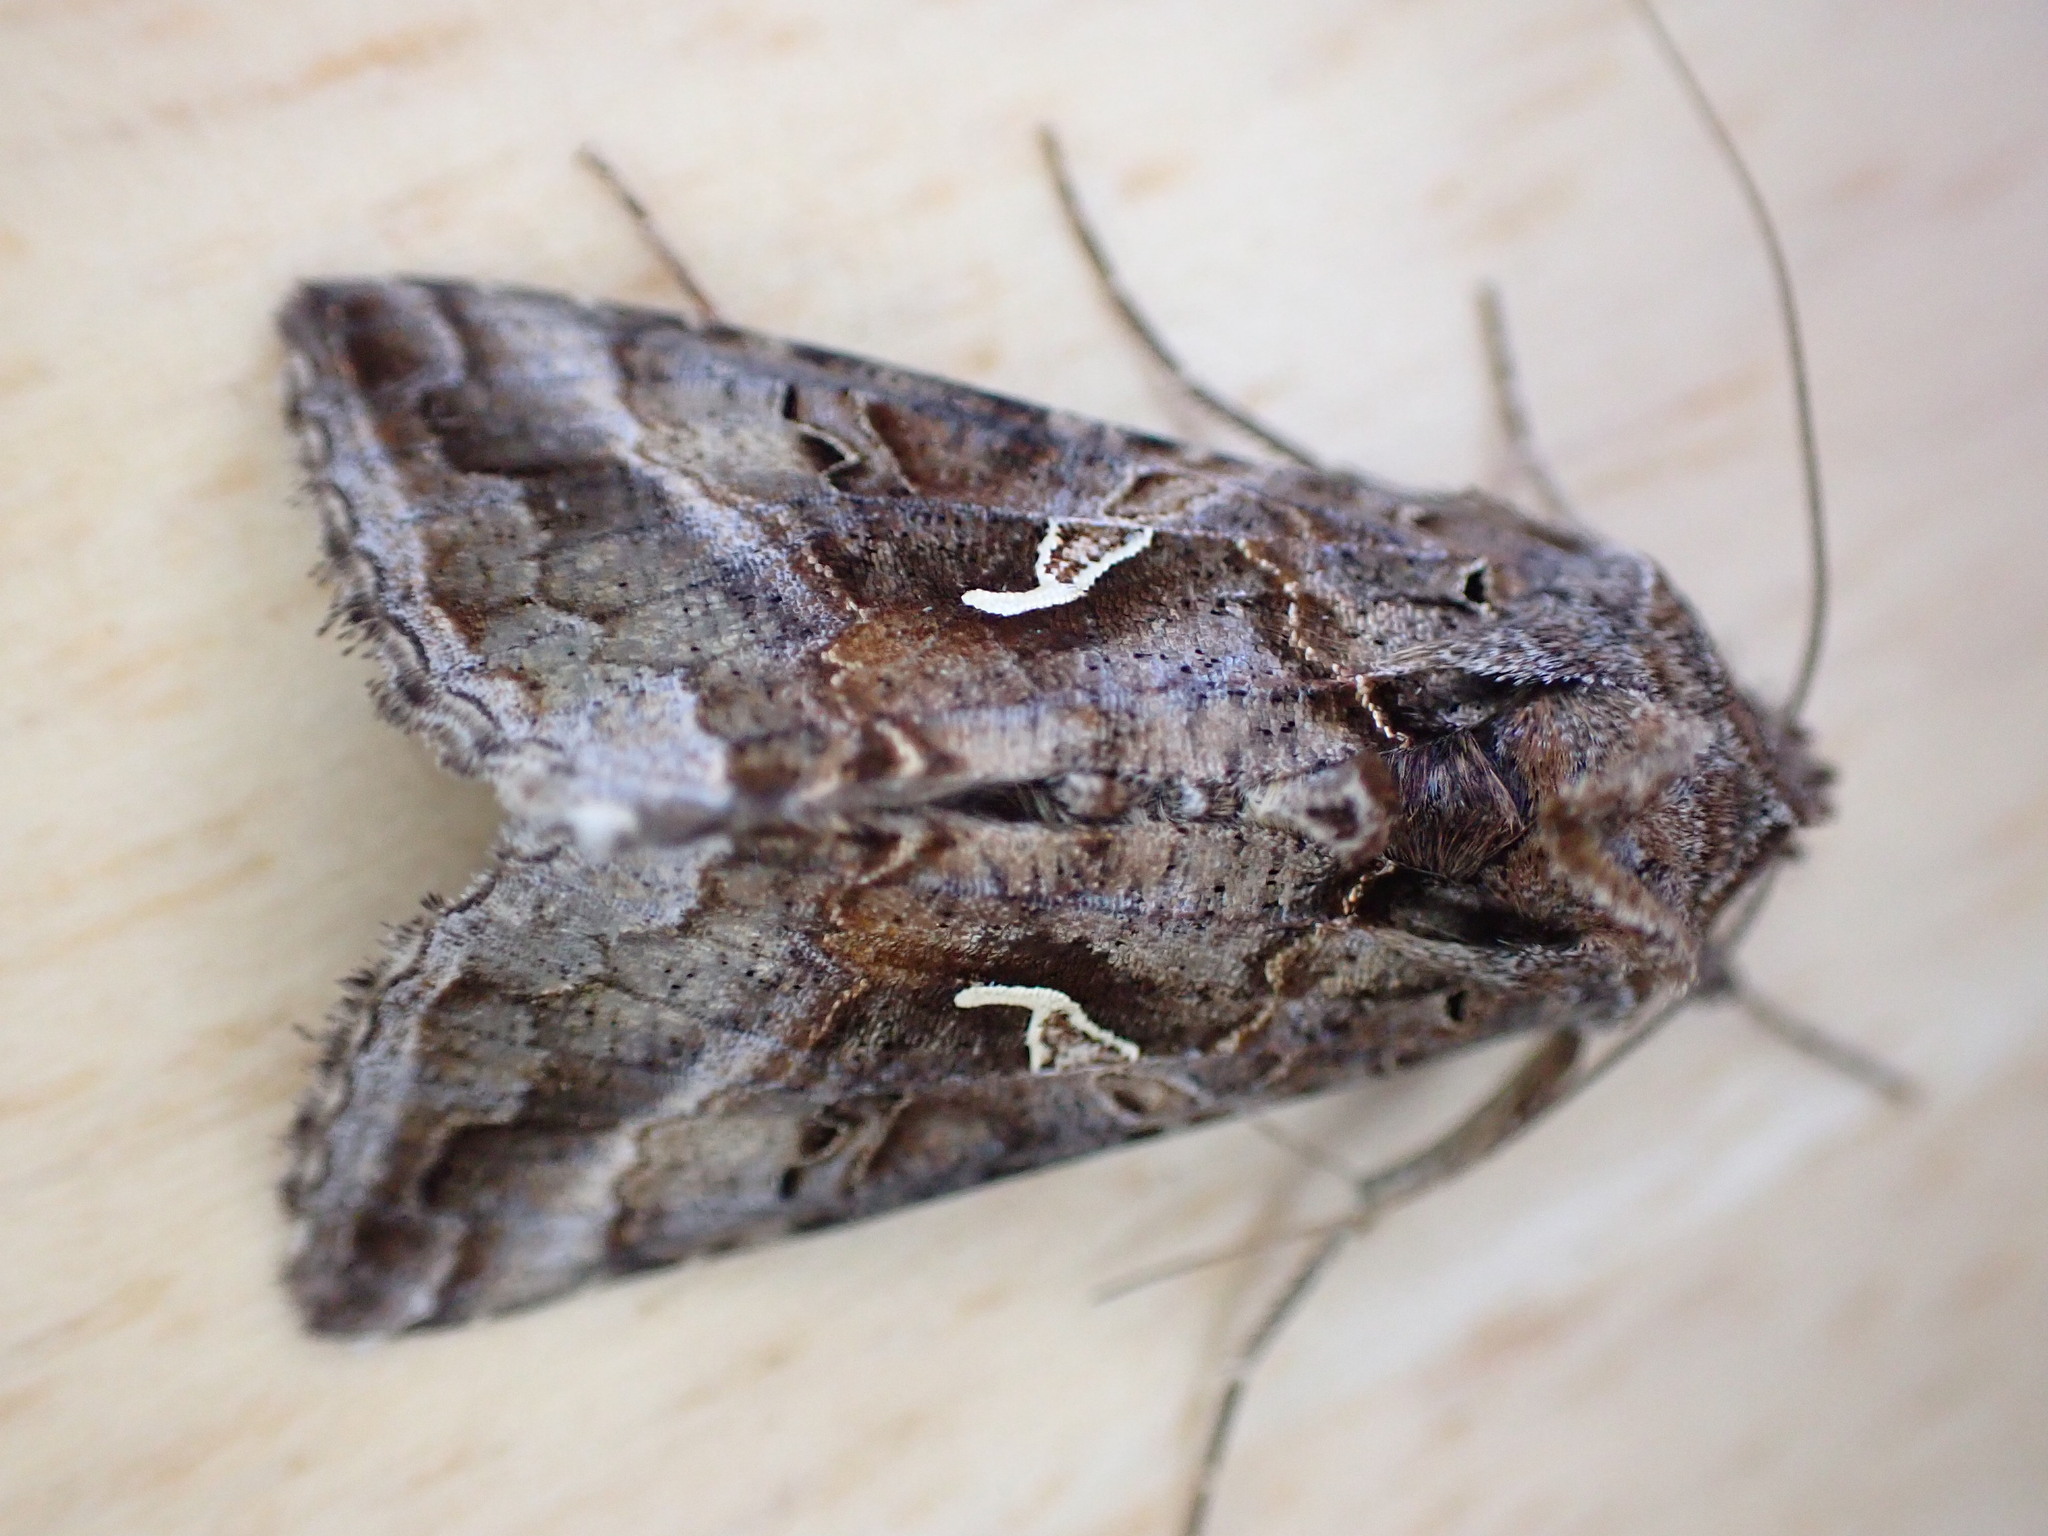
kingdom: Animalia
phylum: Arthropoda
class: Insecta
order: Lepidoptera
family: Noctuidae
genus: Autographa
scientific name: Autographa gamma
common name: Silver y
